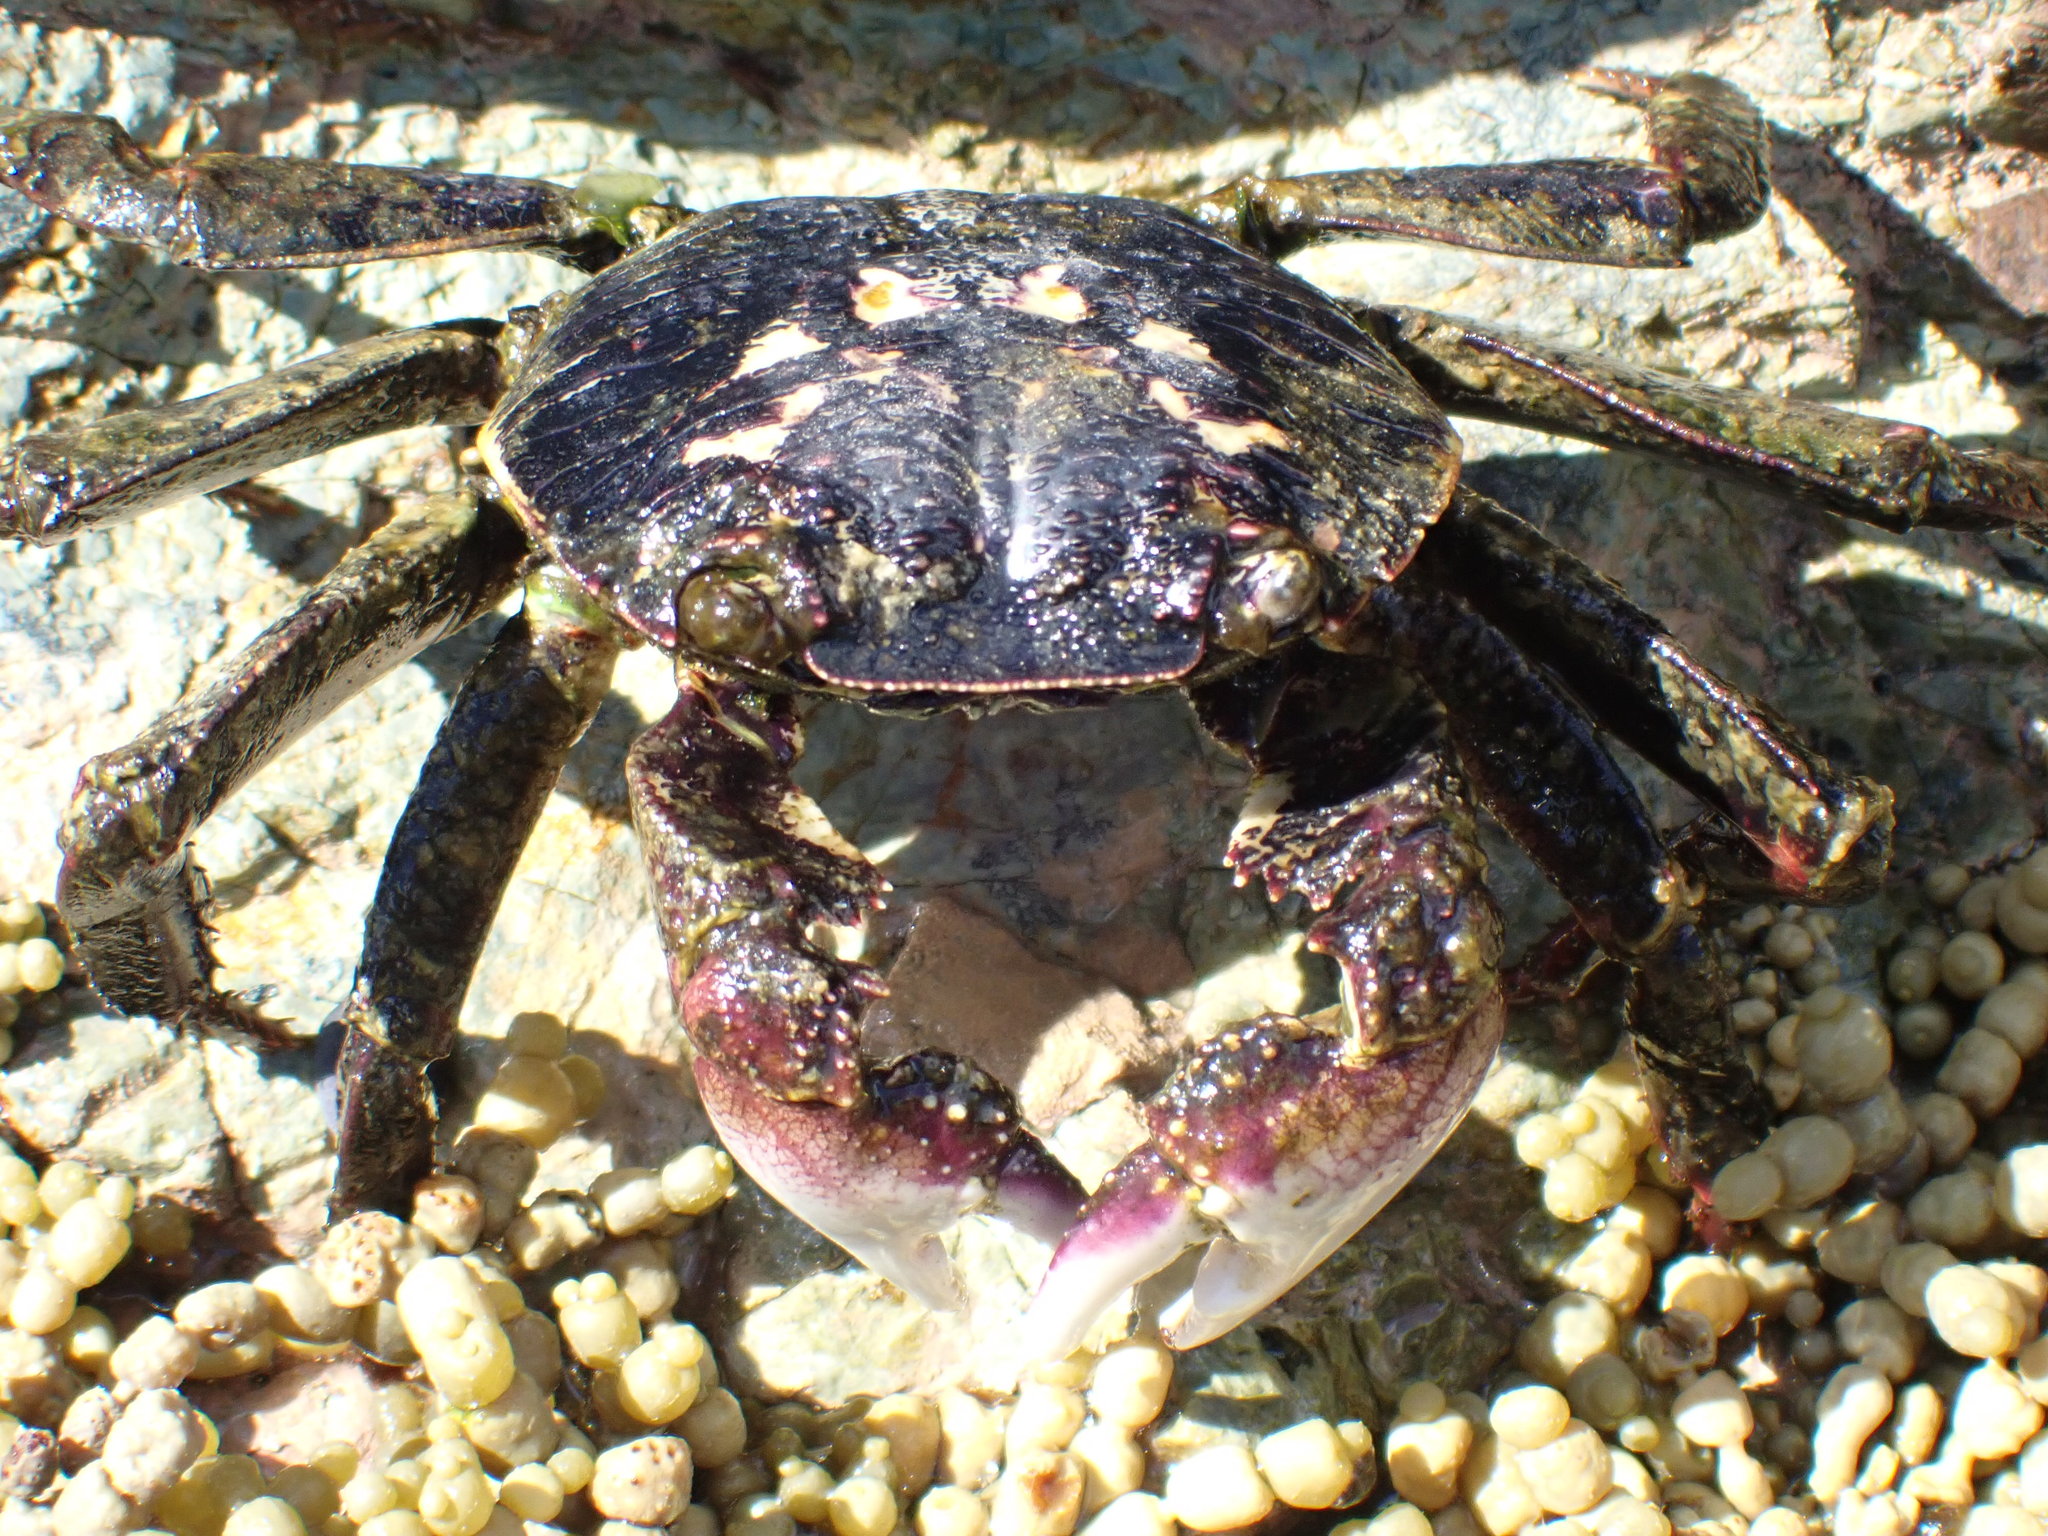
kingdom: Animalia
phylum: Arthropoda
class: Malacostraca
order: Decapoda
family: Grapsidae
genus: Leptograpsus
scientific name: Leptograpsus variegatus
